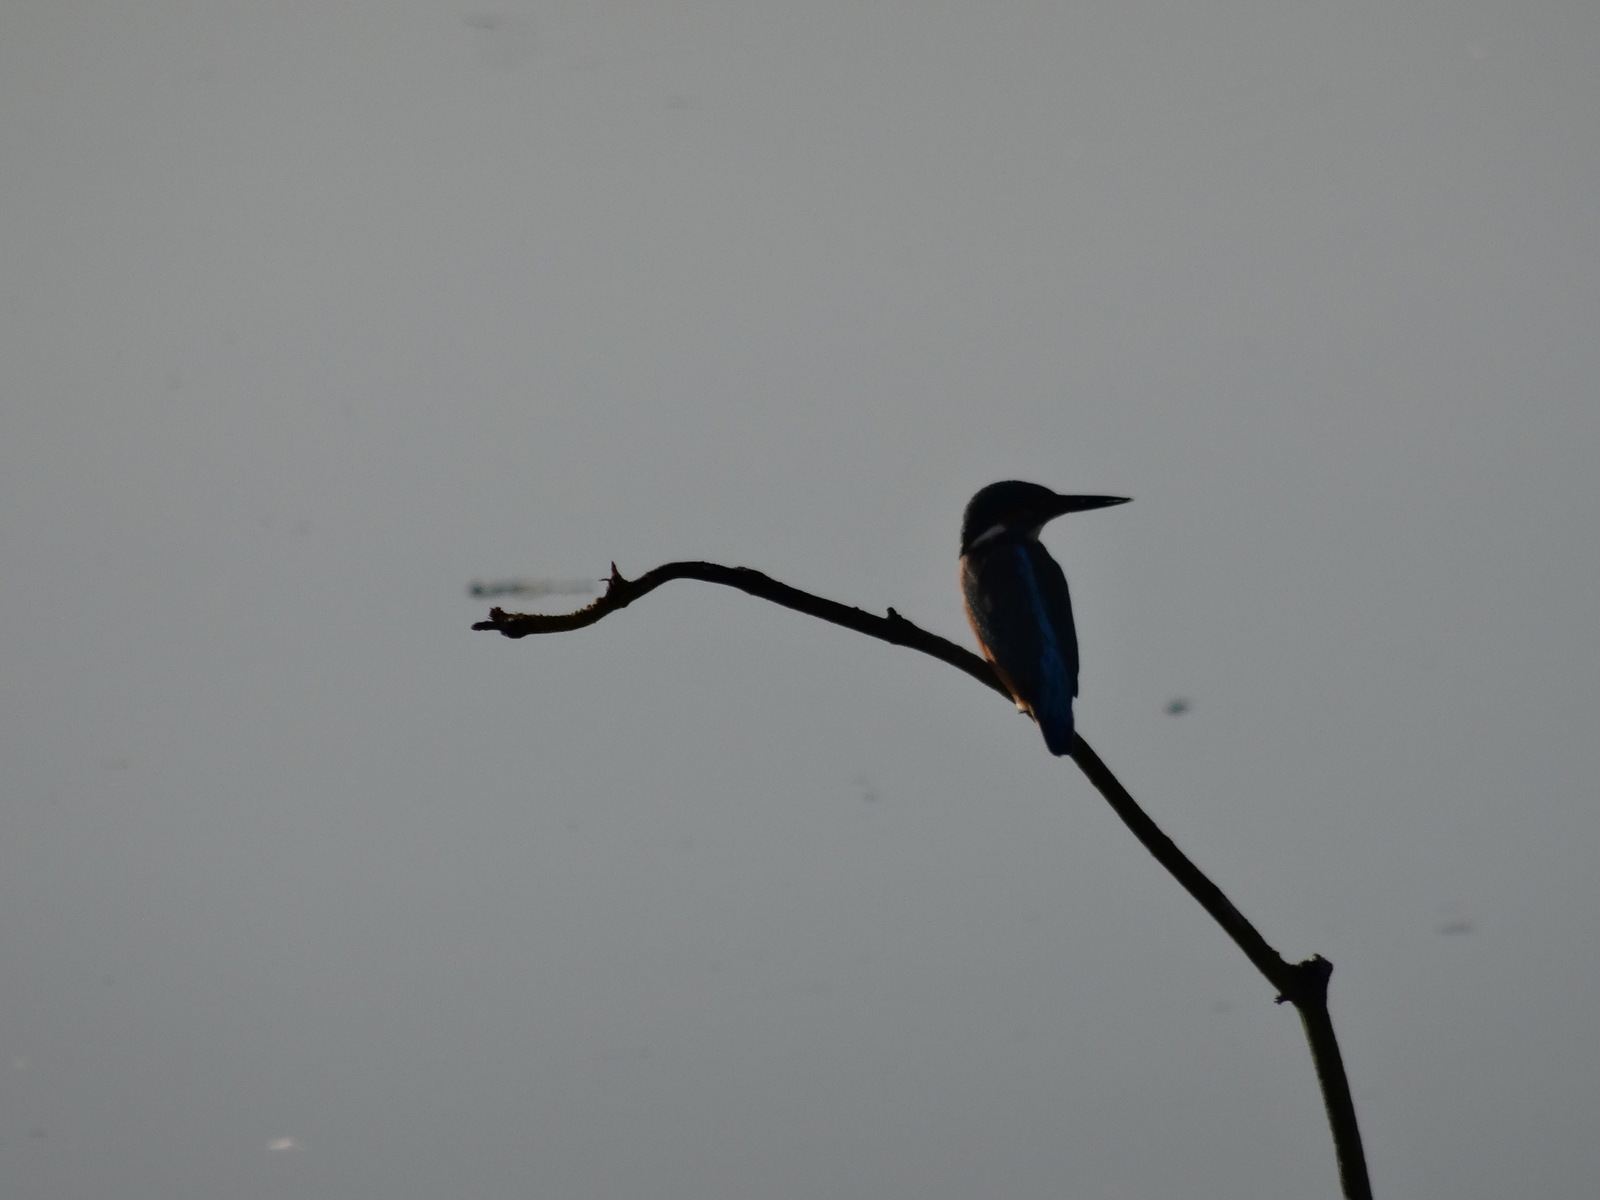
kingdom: Animalia
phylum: Chordata
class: Aves
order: Coraciiformes
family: Alcedinidae
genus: Alcedo
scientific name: Alcedo atthis
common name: Common kingfisher
